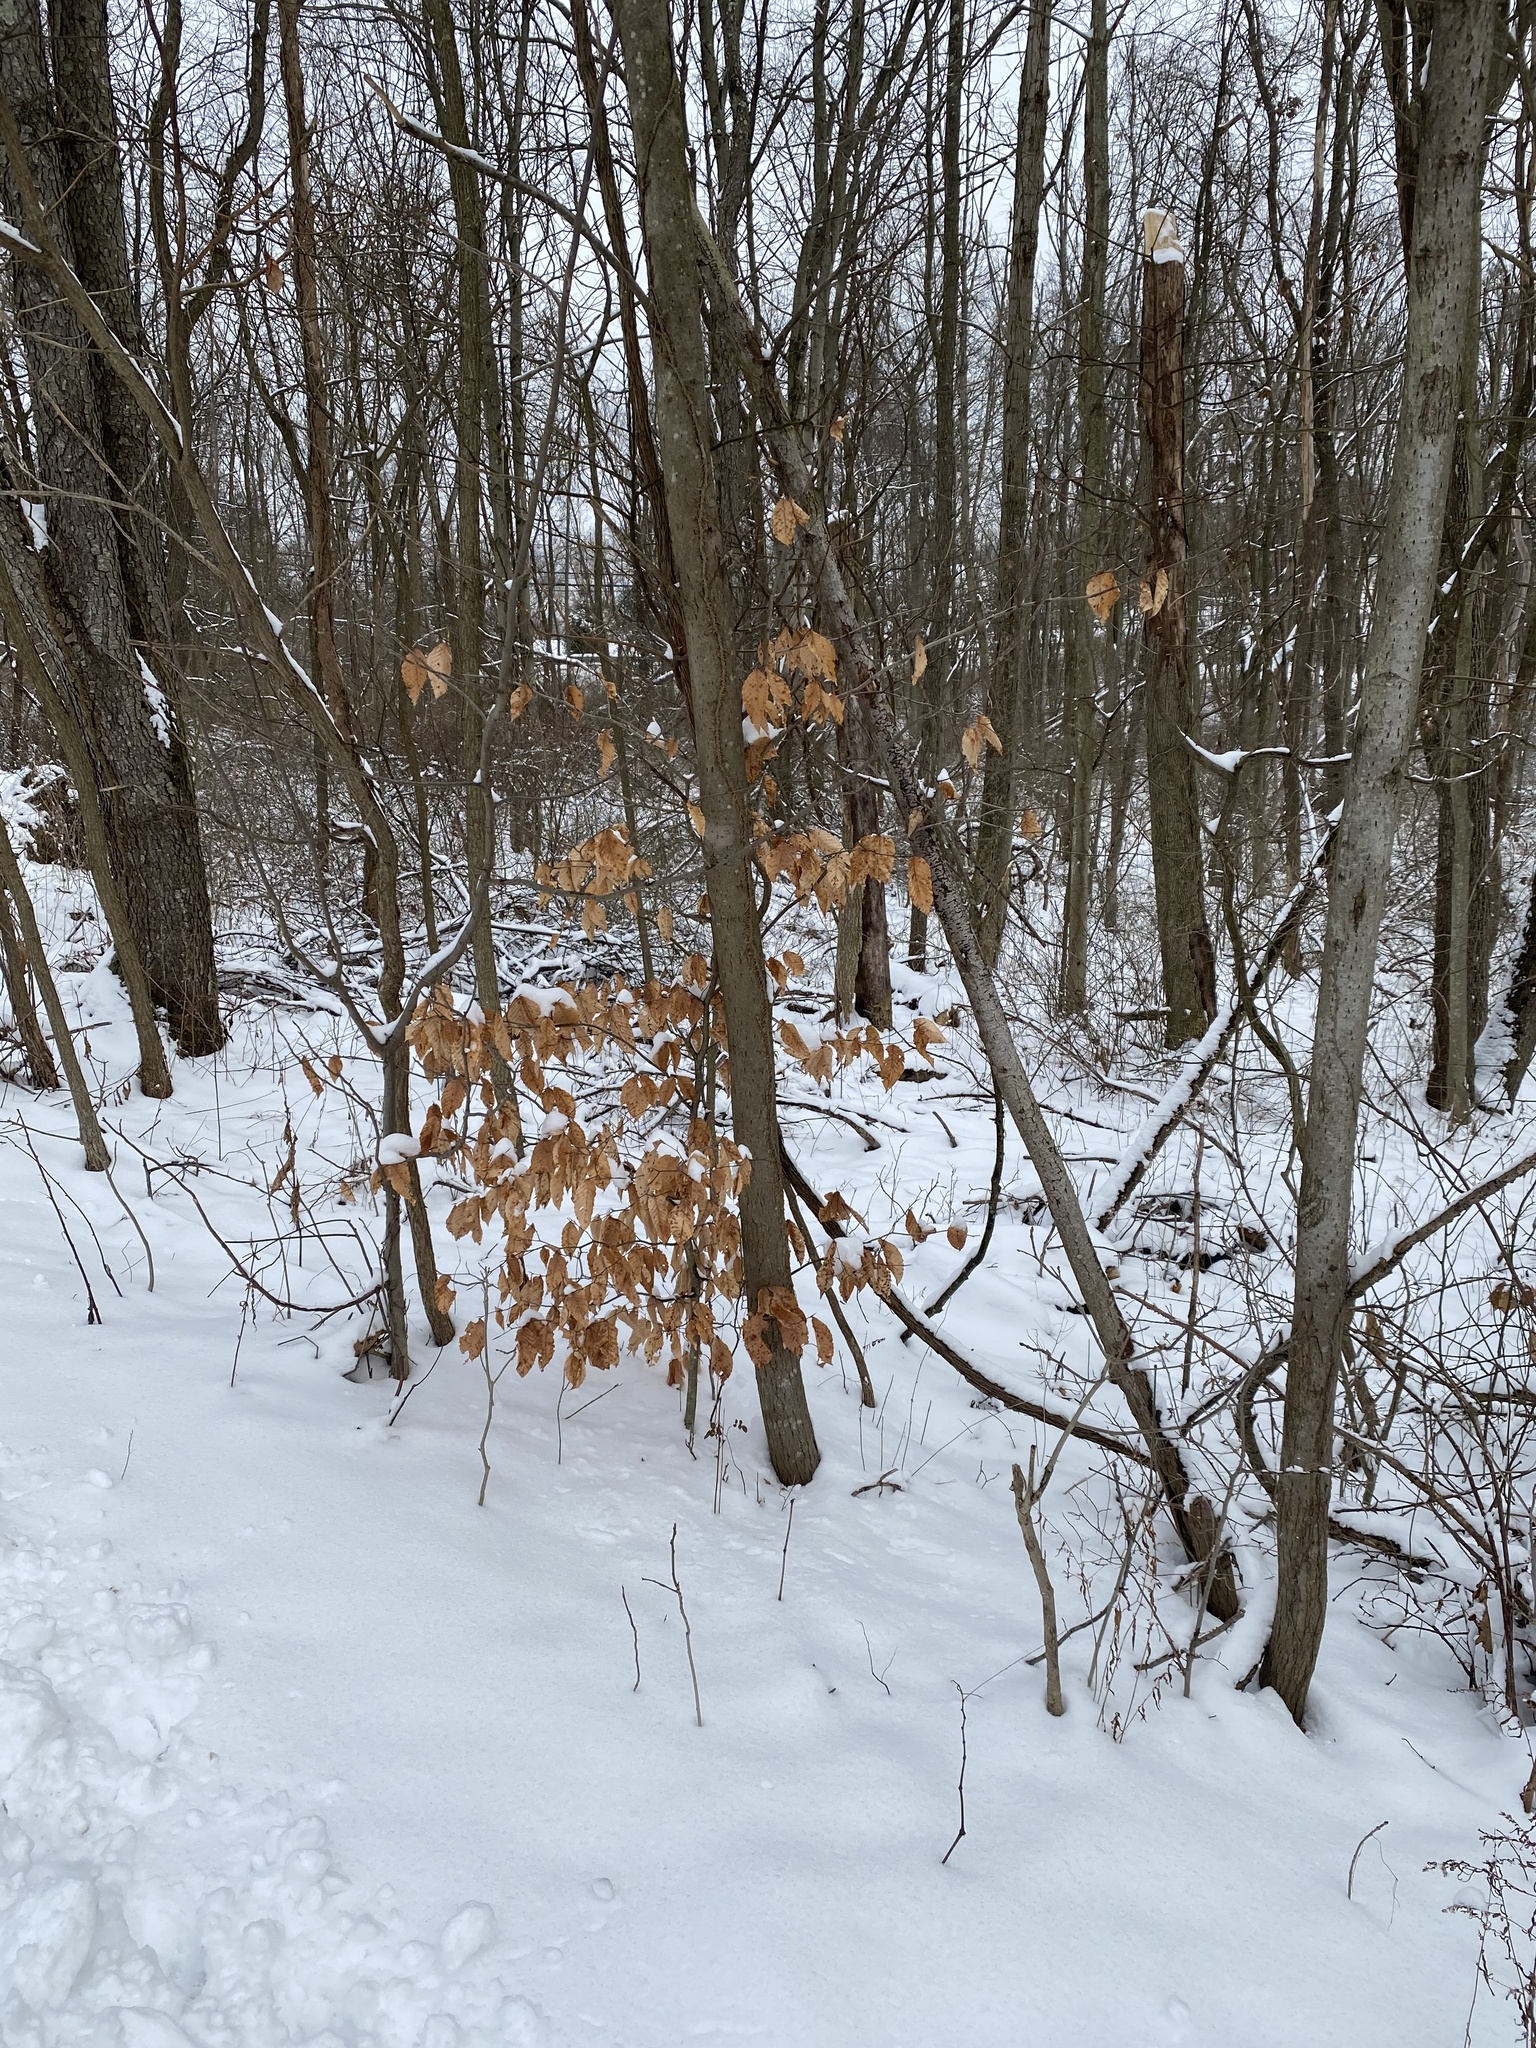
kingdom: Plantae
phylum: Tracheophyta
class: Magnoliopsida
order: Fagales
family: Fagaceae
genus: Fagus
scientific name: Fagus grandifolia
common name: American beech
